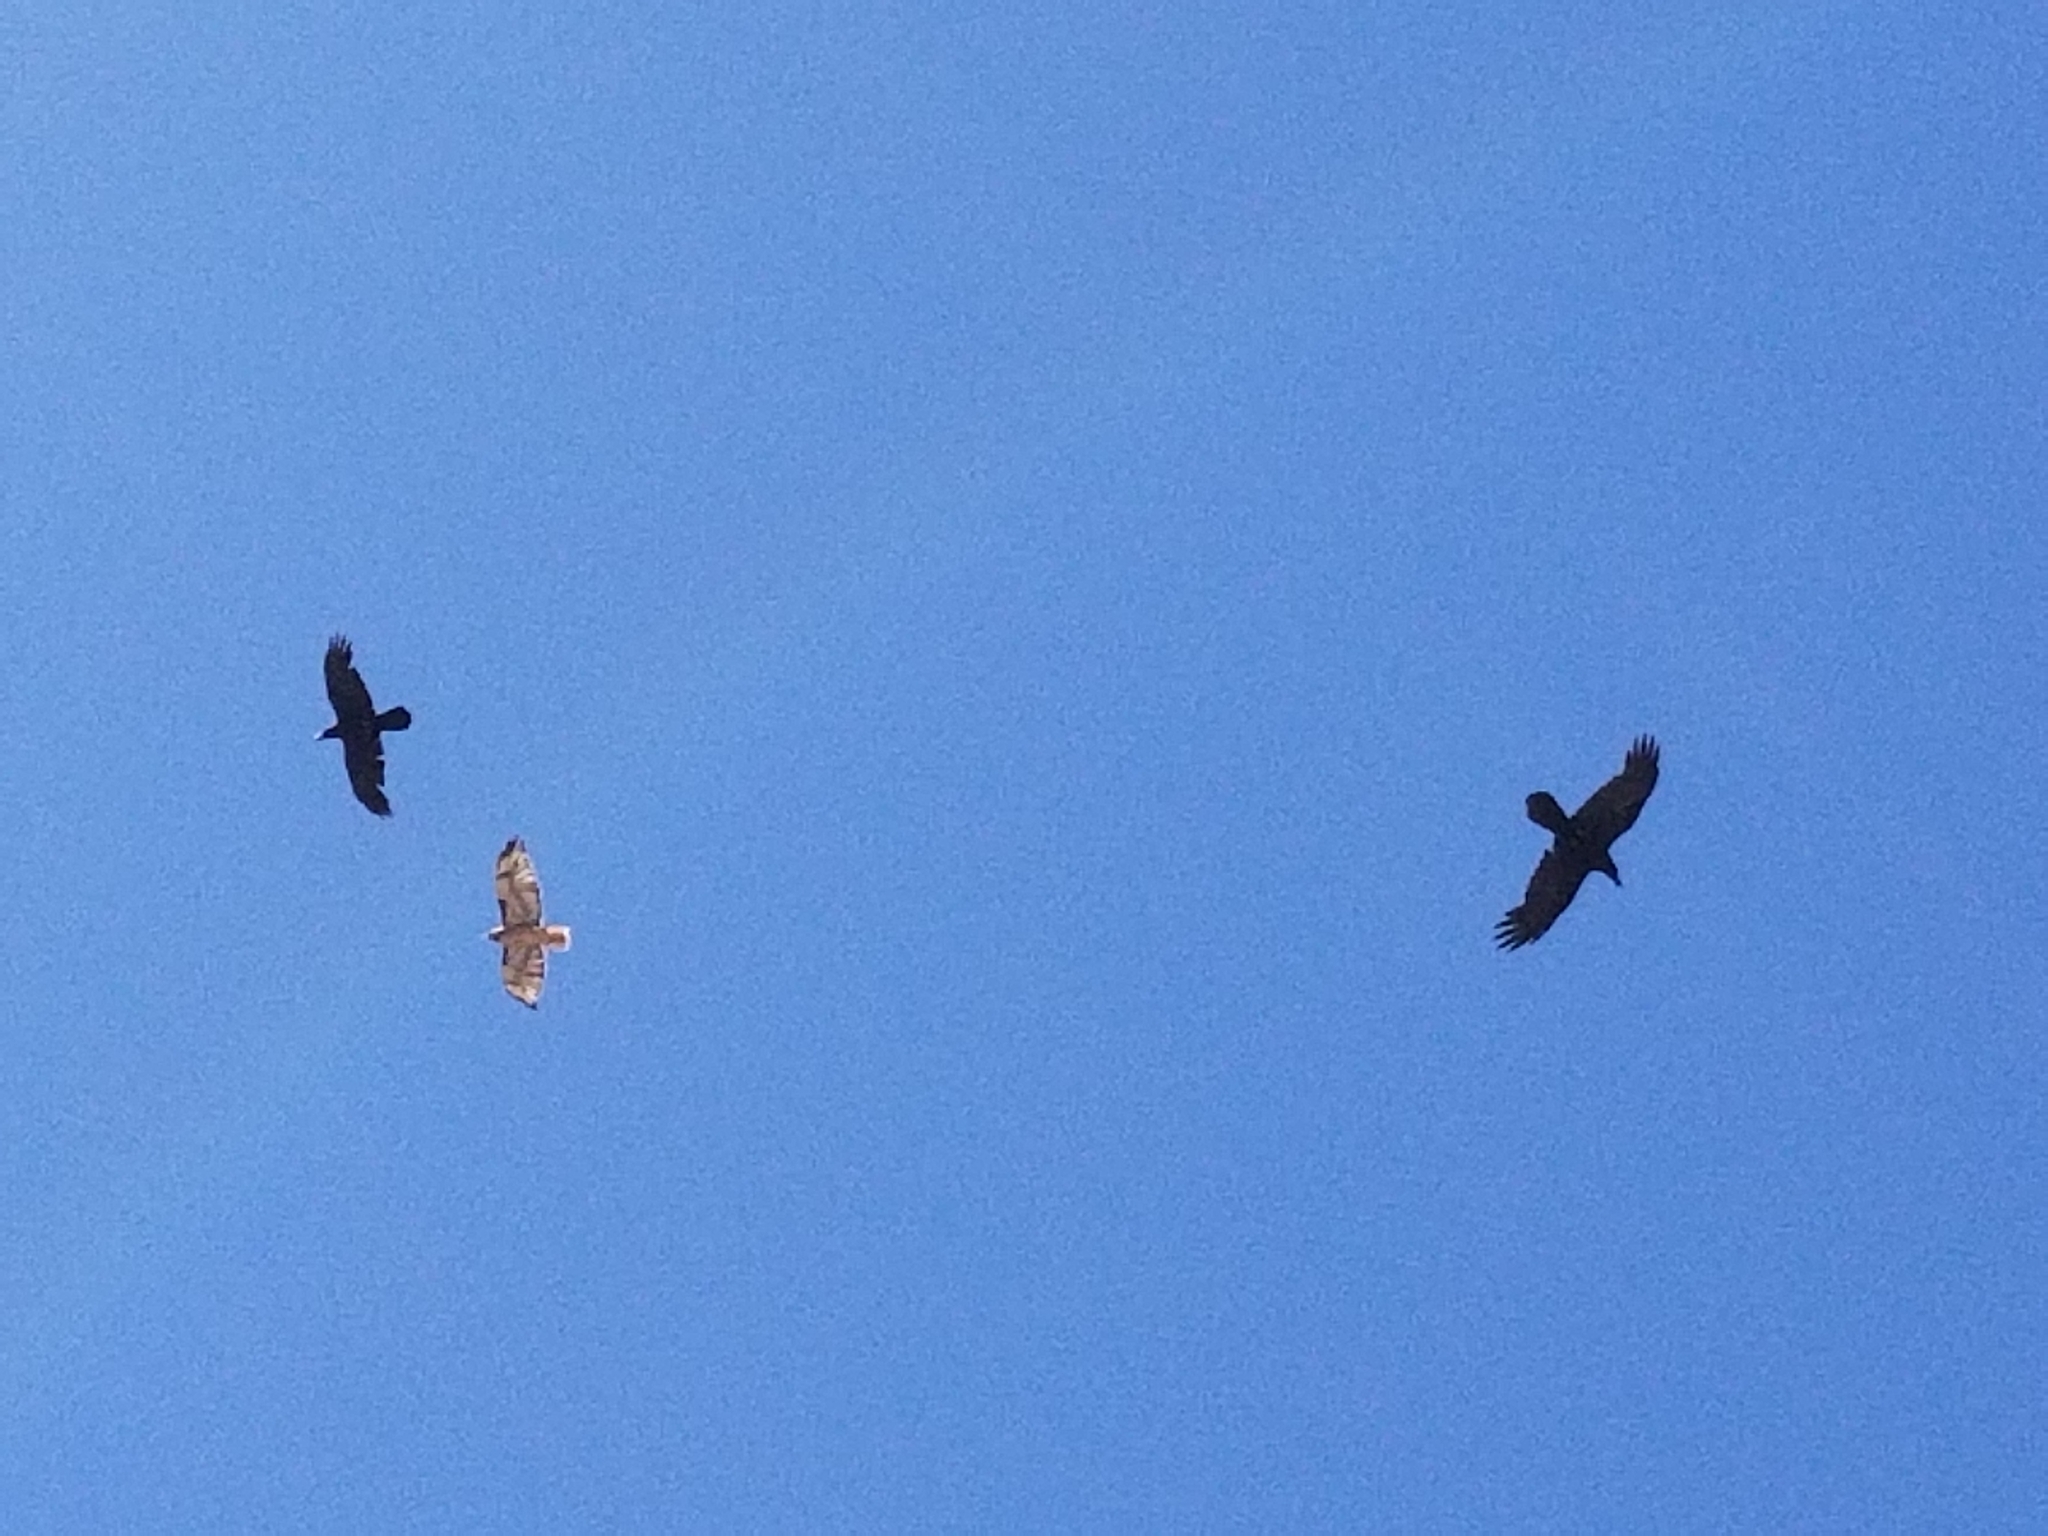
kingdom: Animalia
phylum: Chordata
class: Aves
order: Accipitriformes
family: Accipitridae
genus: Buteo
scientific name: Buteo jamaicensis
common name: Red-tailed hawk
